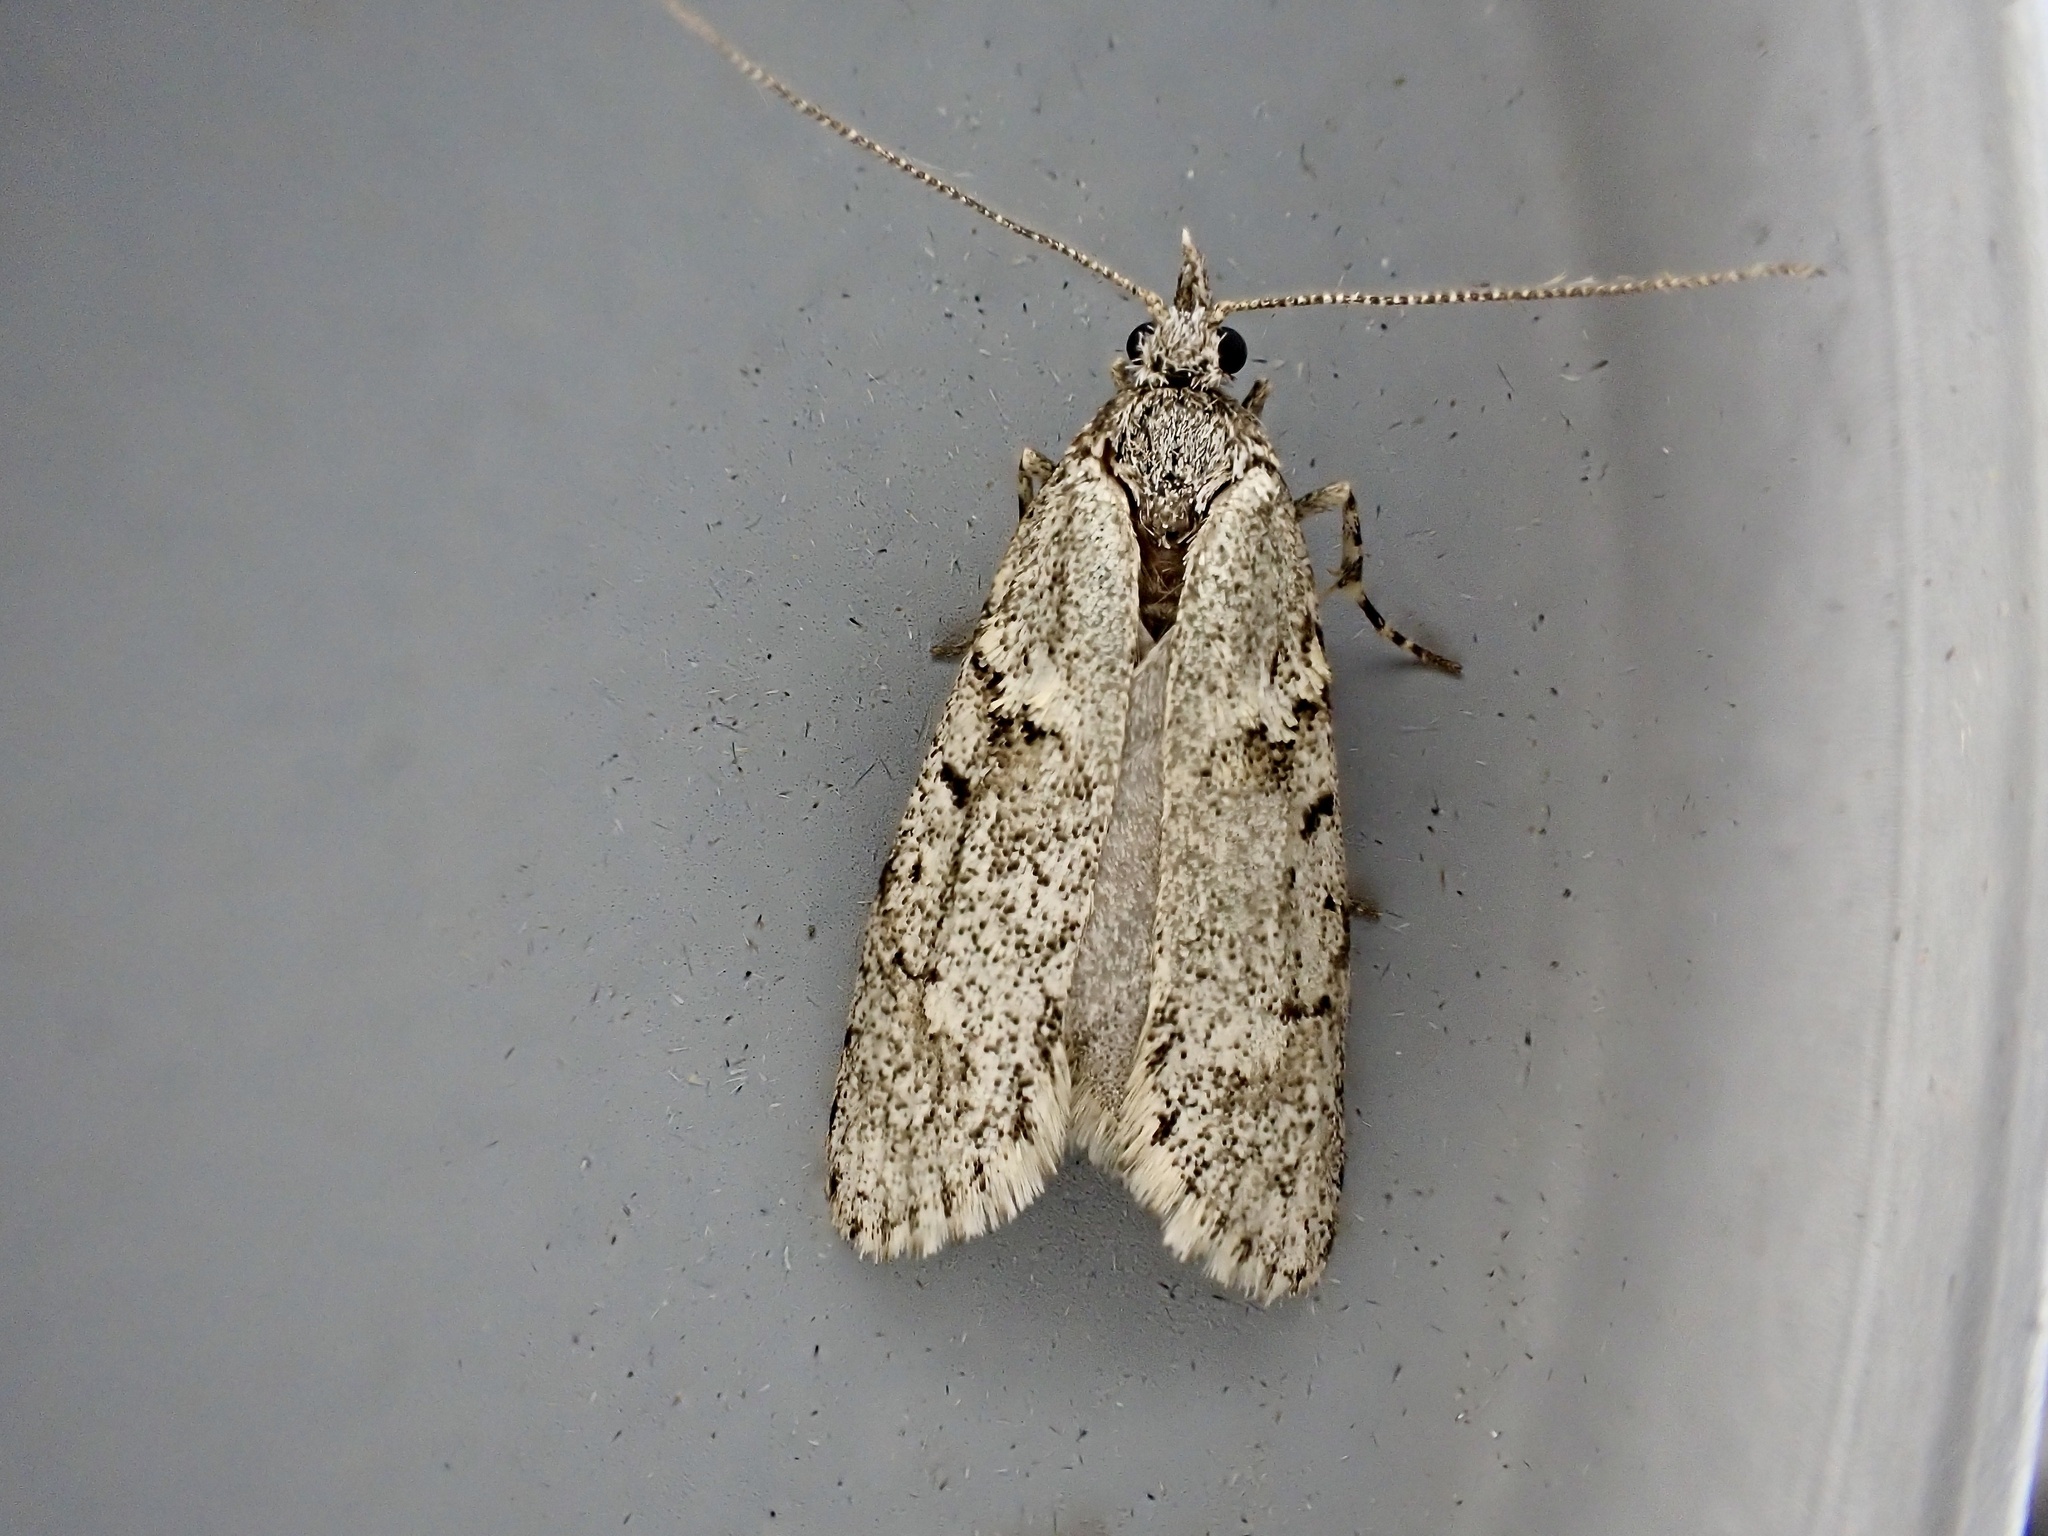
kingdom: Animalia
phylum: Arthropoda
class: Insecta
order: Lepidoptera
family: Lypusidae
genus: Diurnea
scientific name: Diurnea fagella
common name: March tubic
